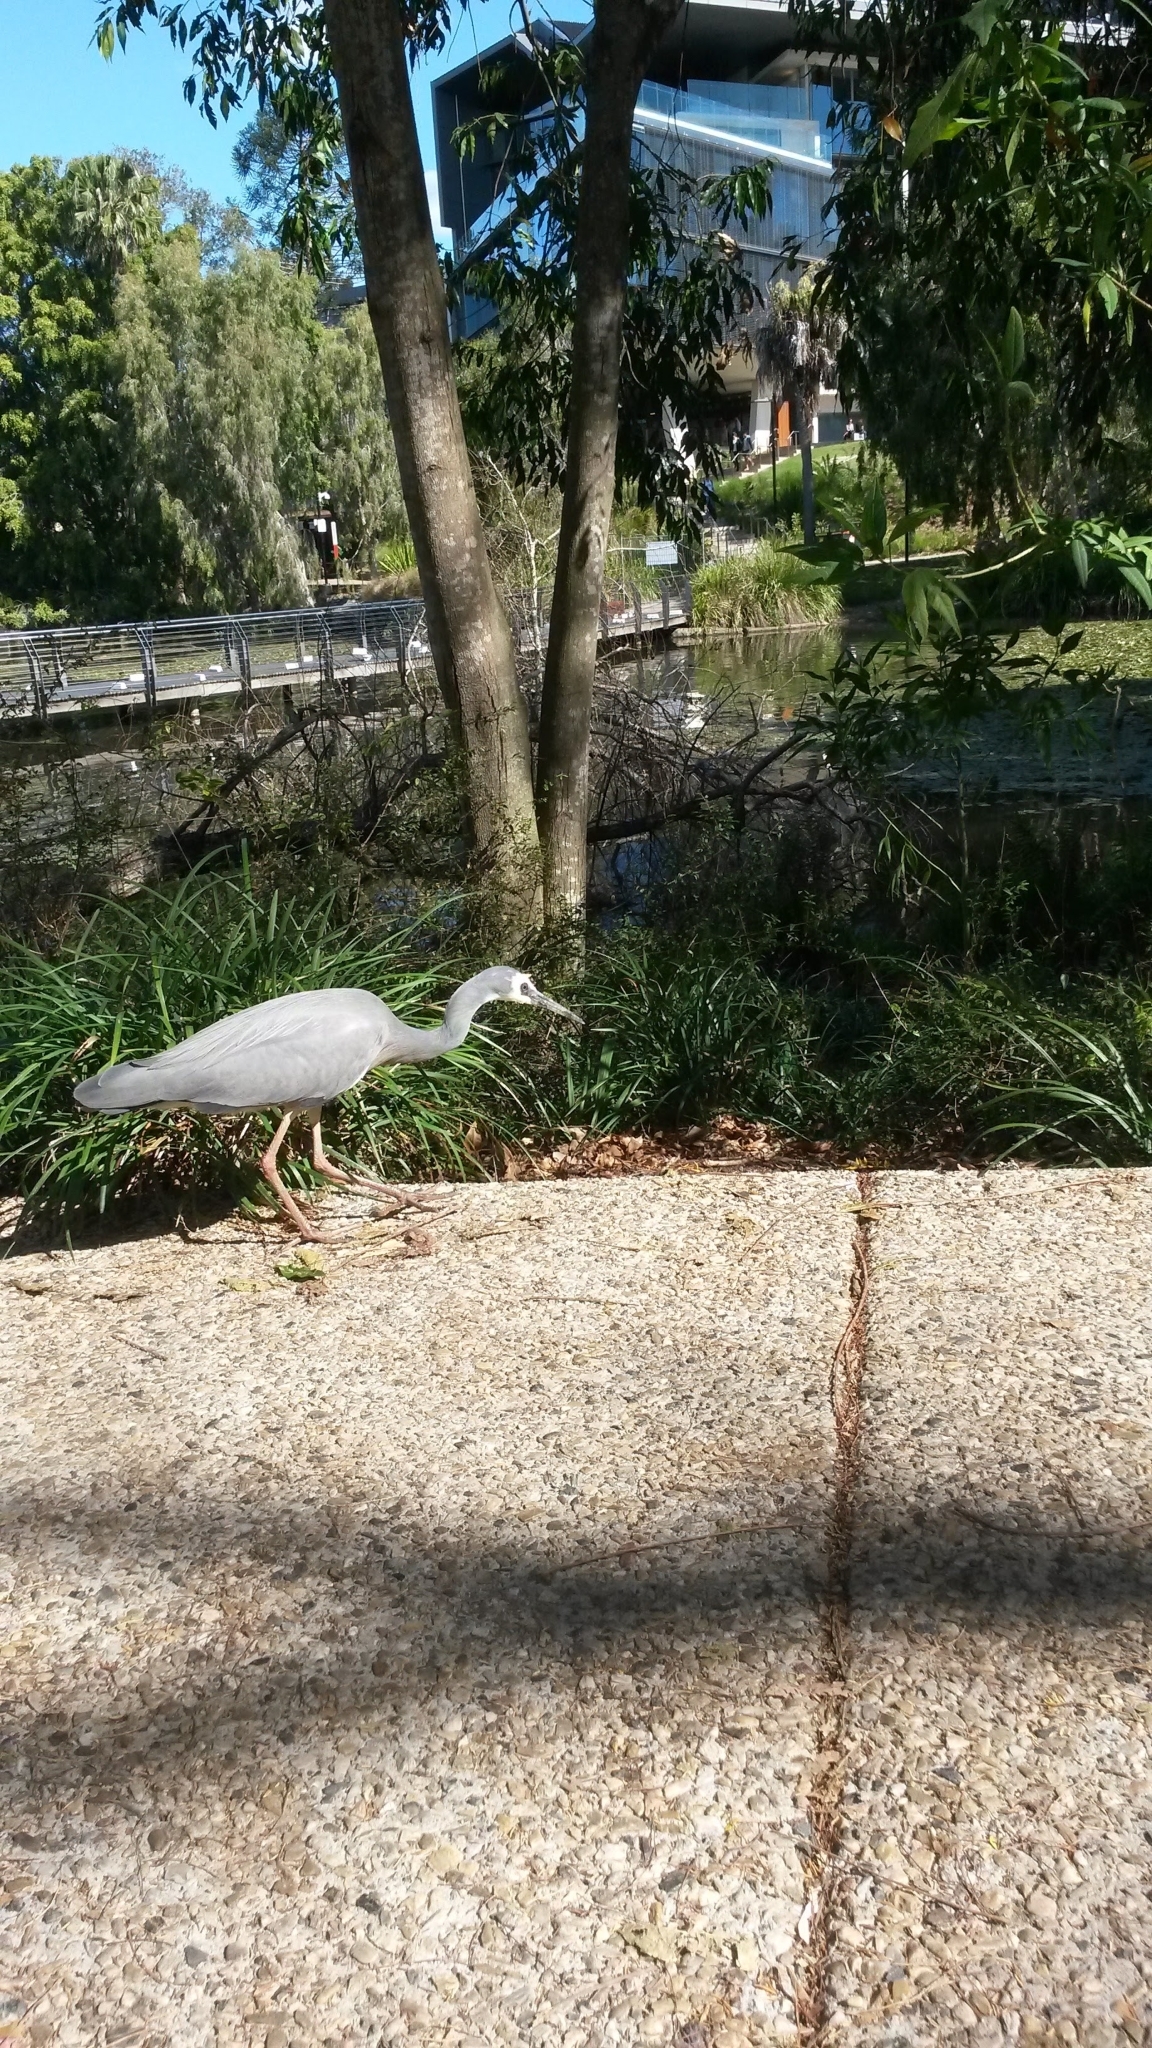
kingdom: Animalia
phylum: Chordata
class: Aves
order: Pelecaniformes
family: Ardeidae
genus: Egretta
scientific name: Egretta novaehollandiae
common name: White-faced heron
